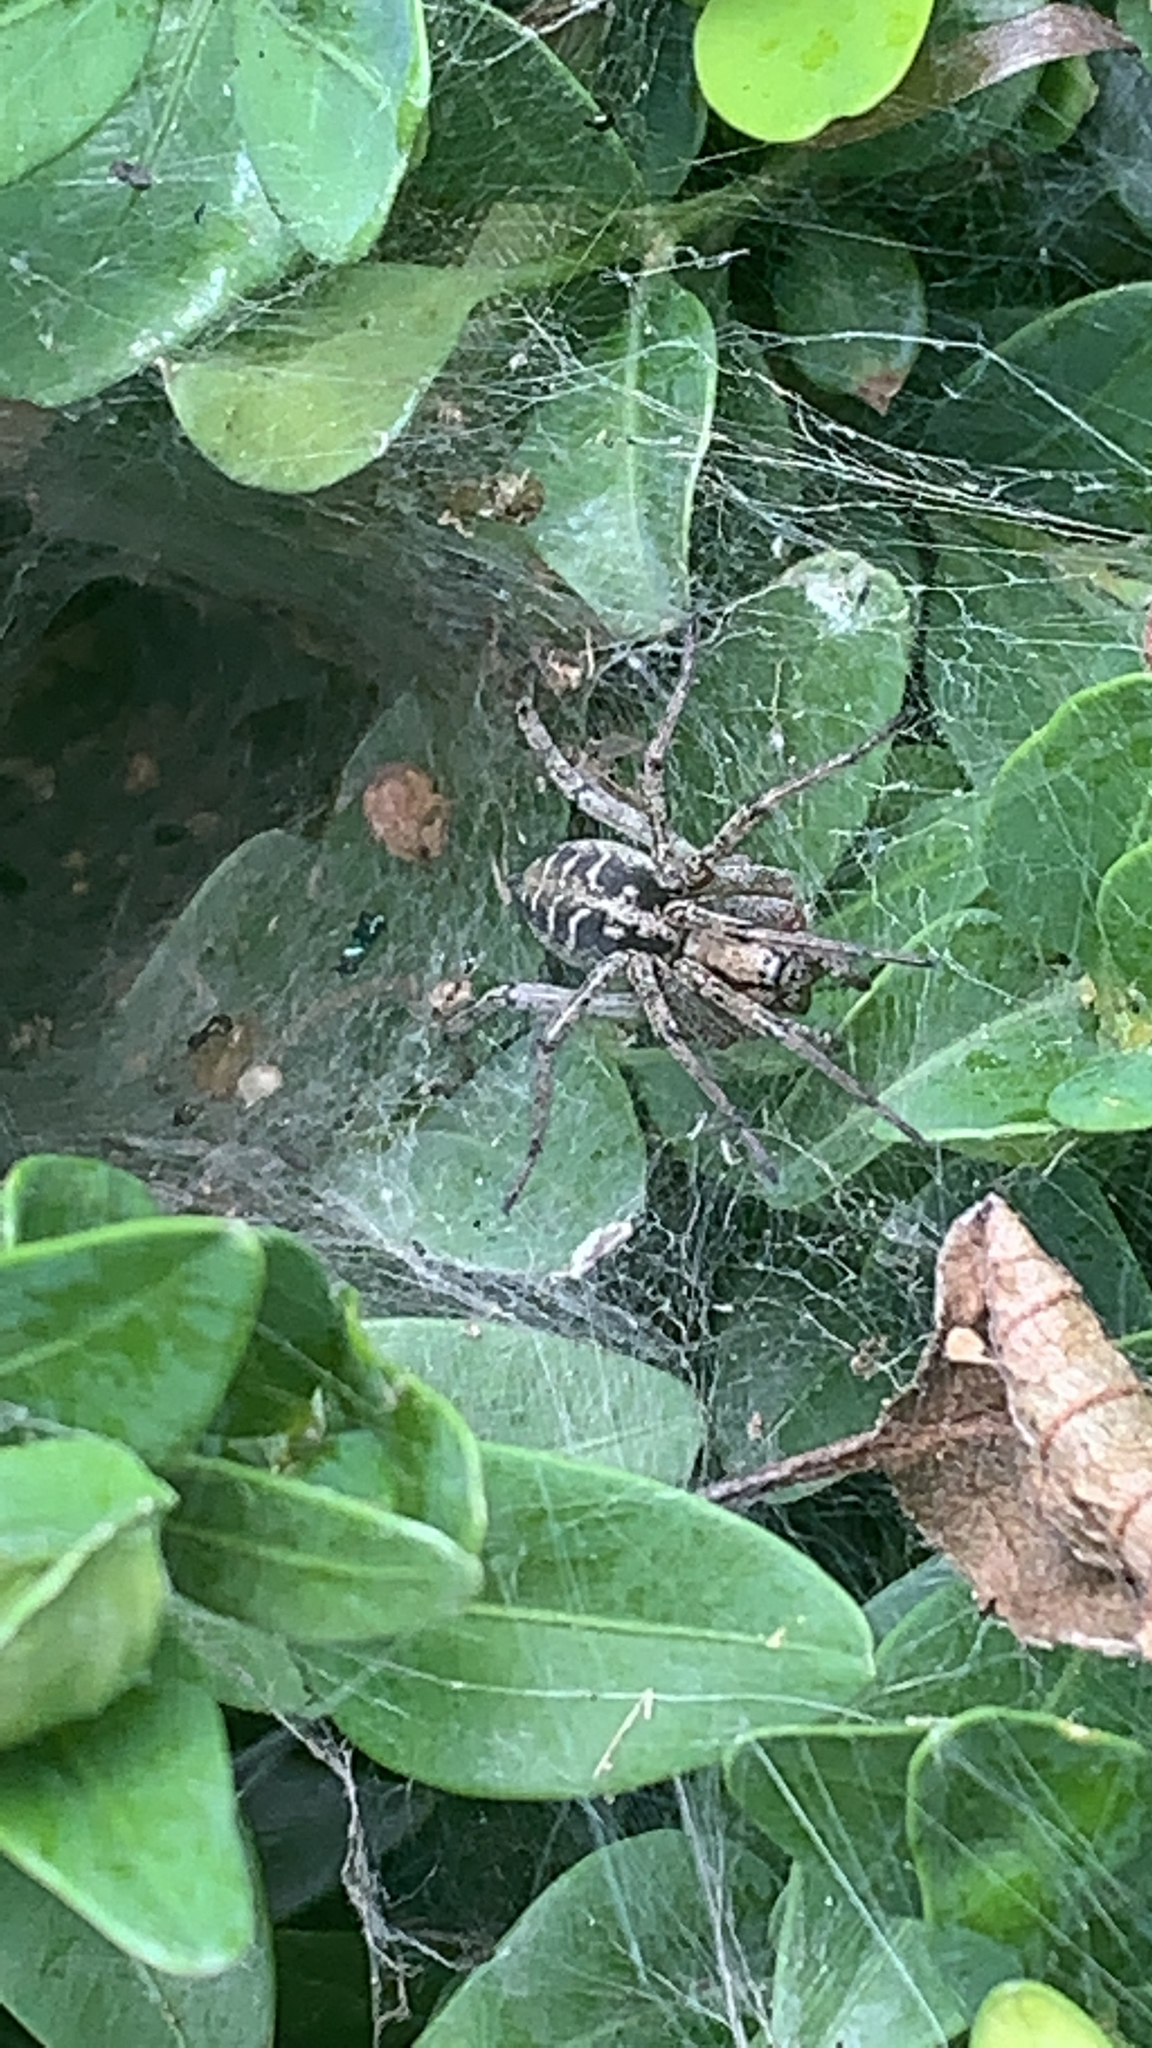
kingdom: Animalia
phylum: Arthropoda
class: Arachnida
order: Araneae
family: Agelenidae
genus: Agelena
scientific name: Agelena labyrinthica
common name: Labyrinth spider
